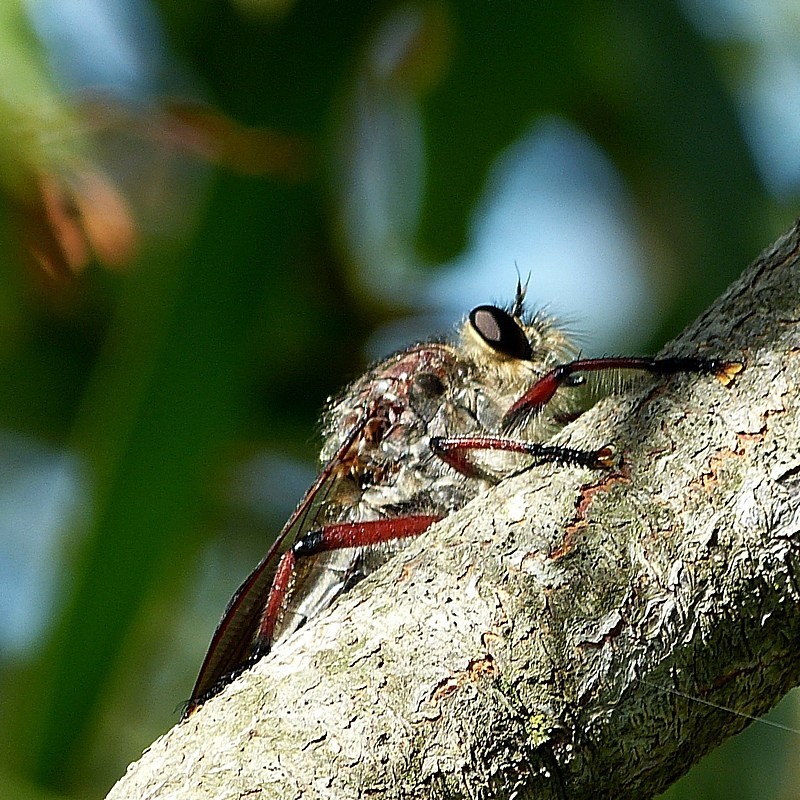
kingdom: Animalia
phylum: Arthropoda
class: Insecta
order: Diptera
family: Asilidae
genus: Neoaratus
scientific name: Neoaratus hercules
